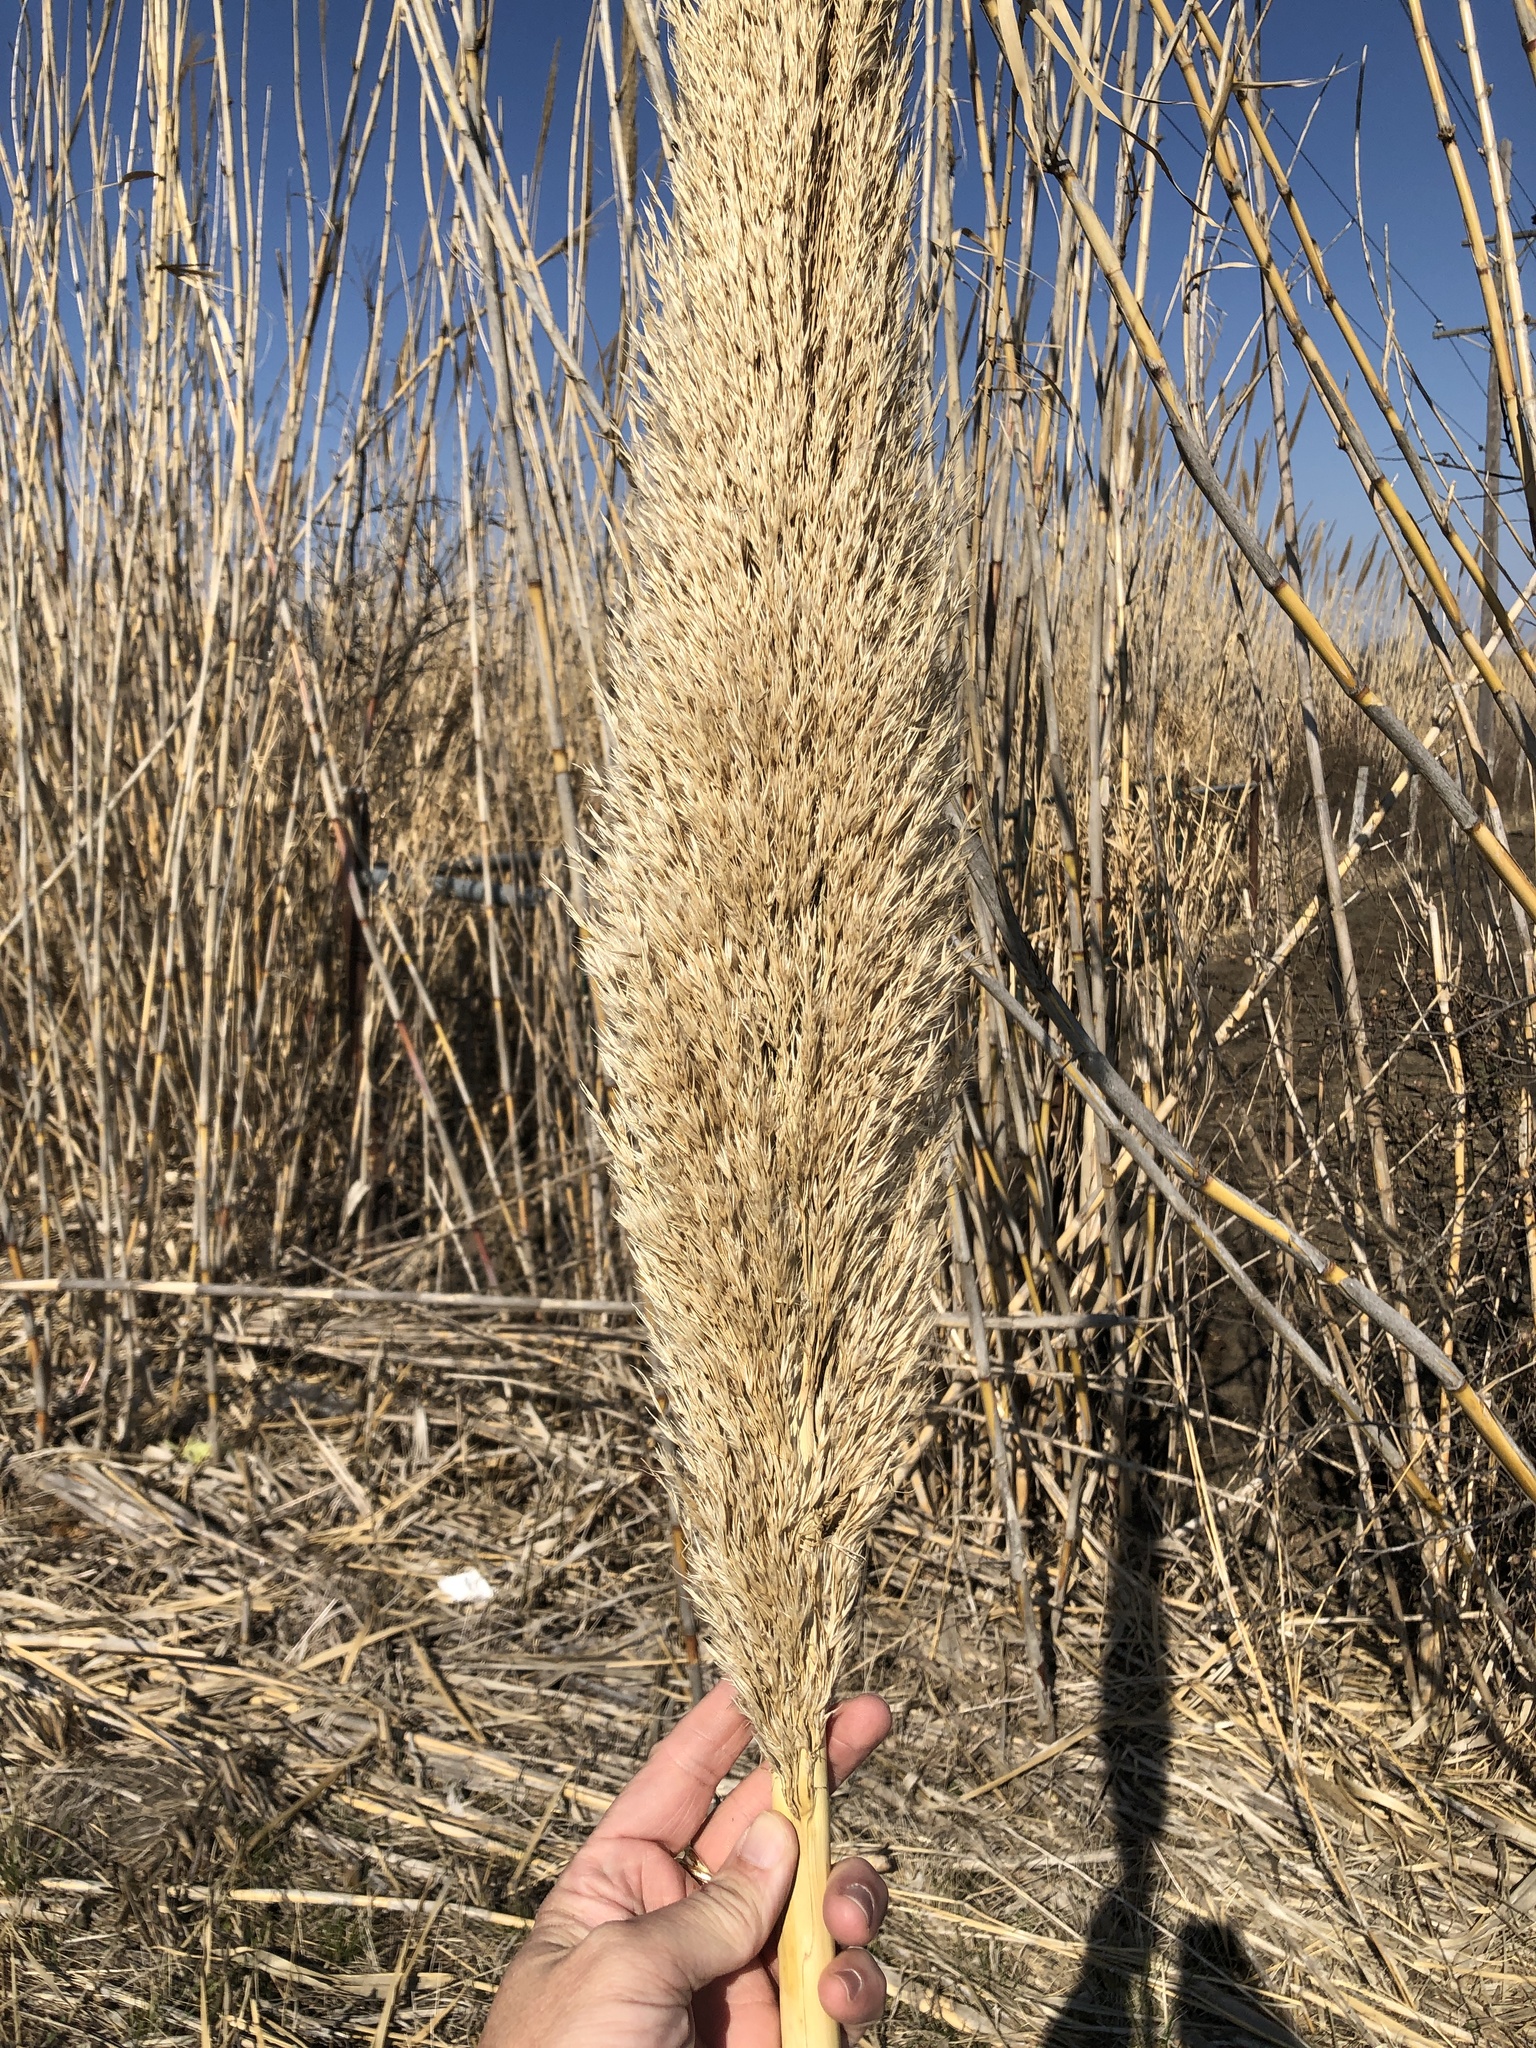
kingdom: Plantae
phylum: Tracheophyta
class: Liliopsida
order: Poales
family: Poaceae
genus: Arundo
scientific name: Arundo donax
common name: Giant reed
